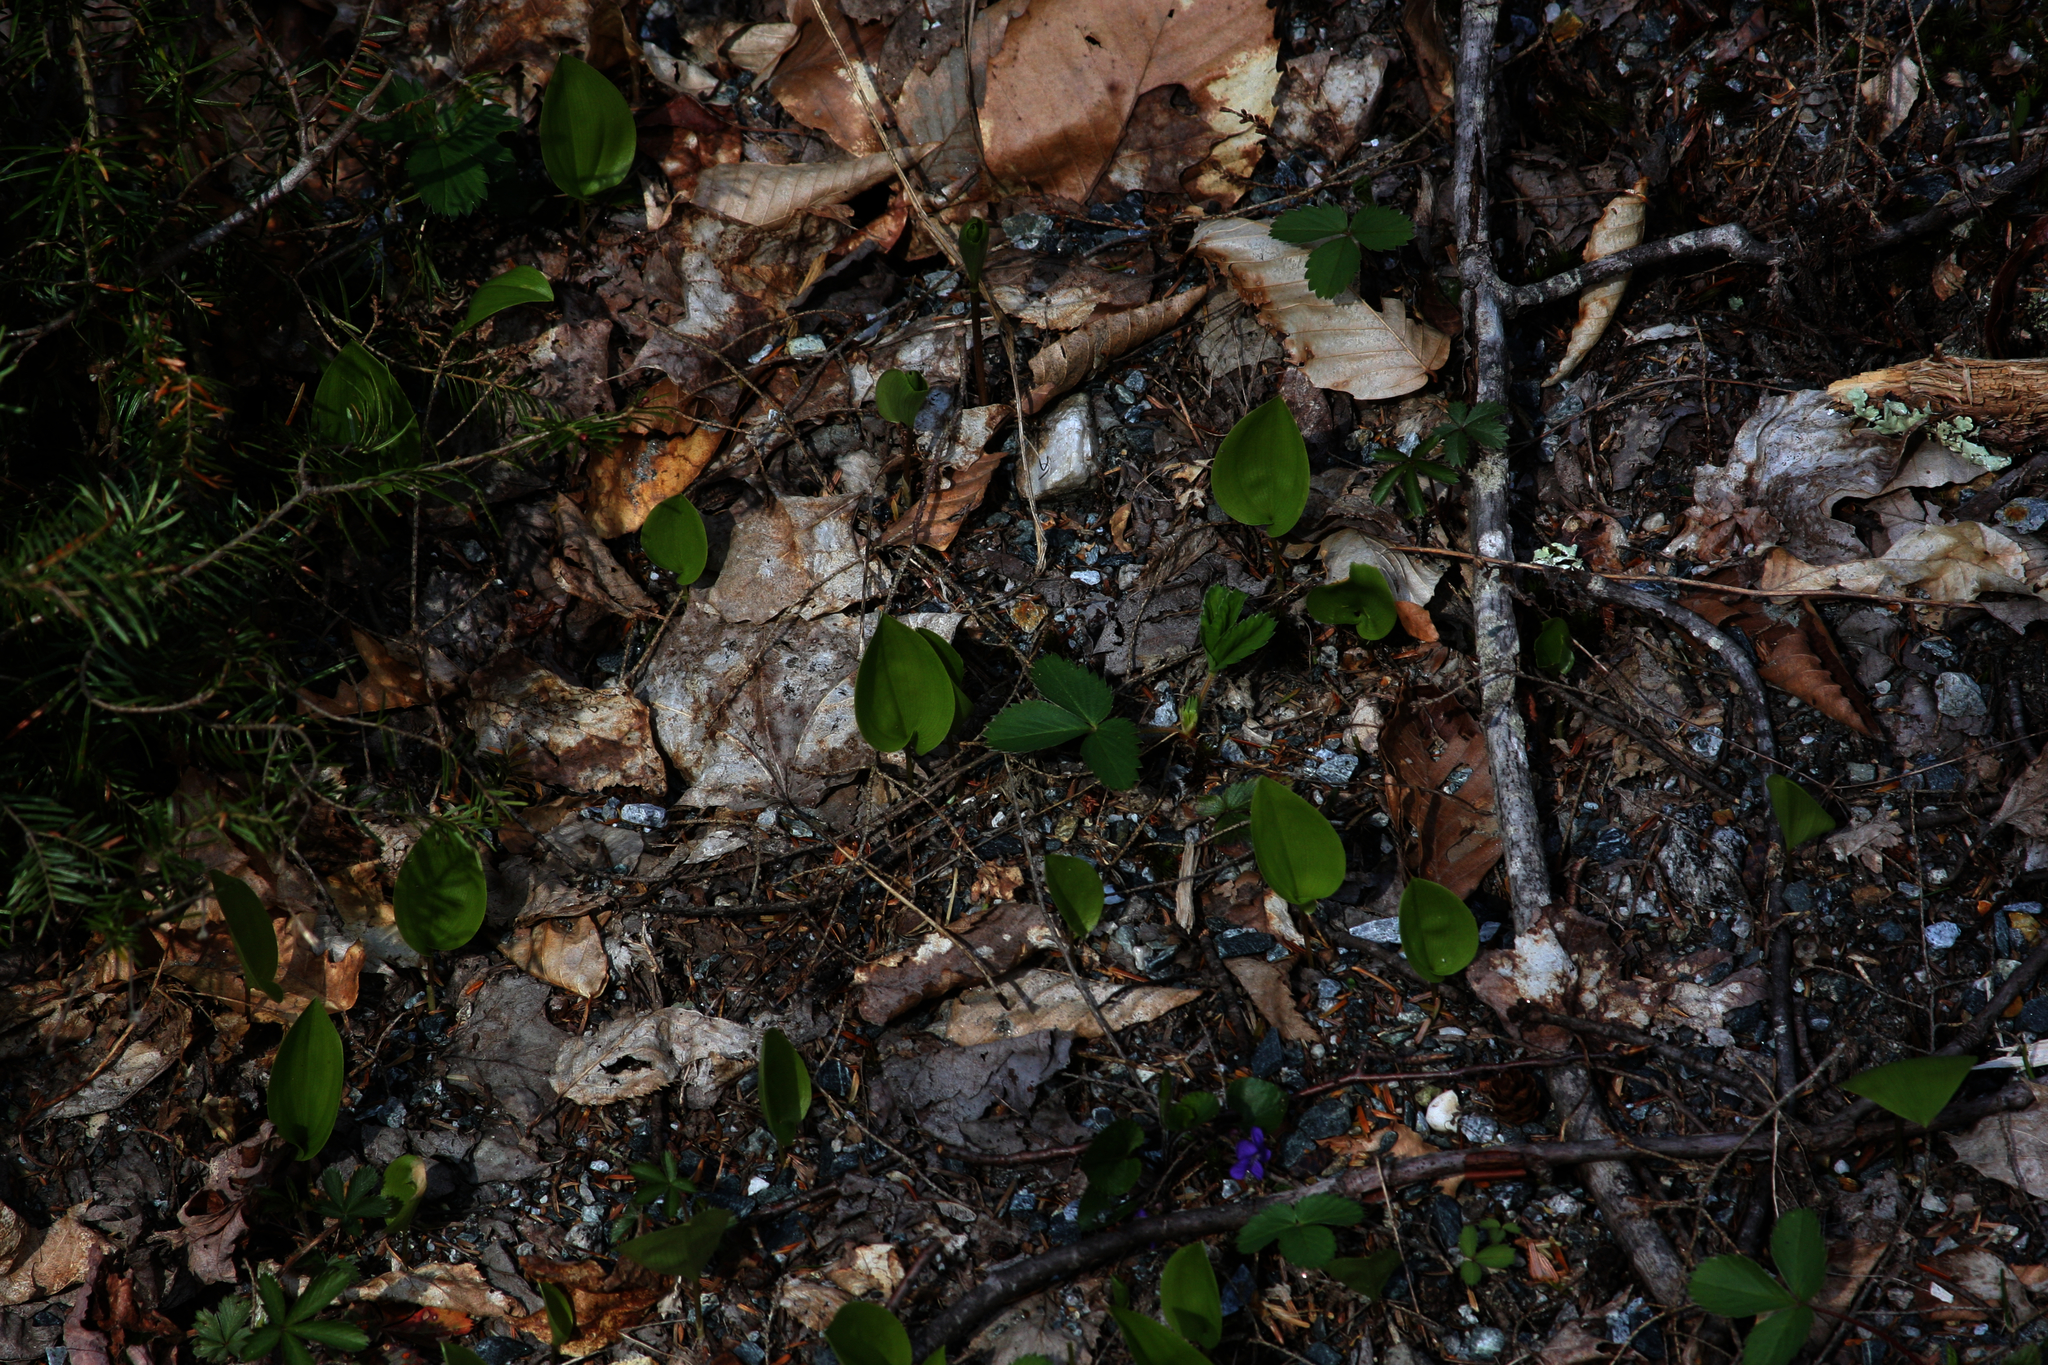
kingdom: Plantae
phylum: Tracheophyta
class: Liliopsida
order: Asparagales
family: Asparagaceae
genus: Maianthemum
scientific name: Maianthemum canadense
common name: False lily-of-the-valley
